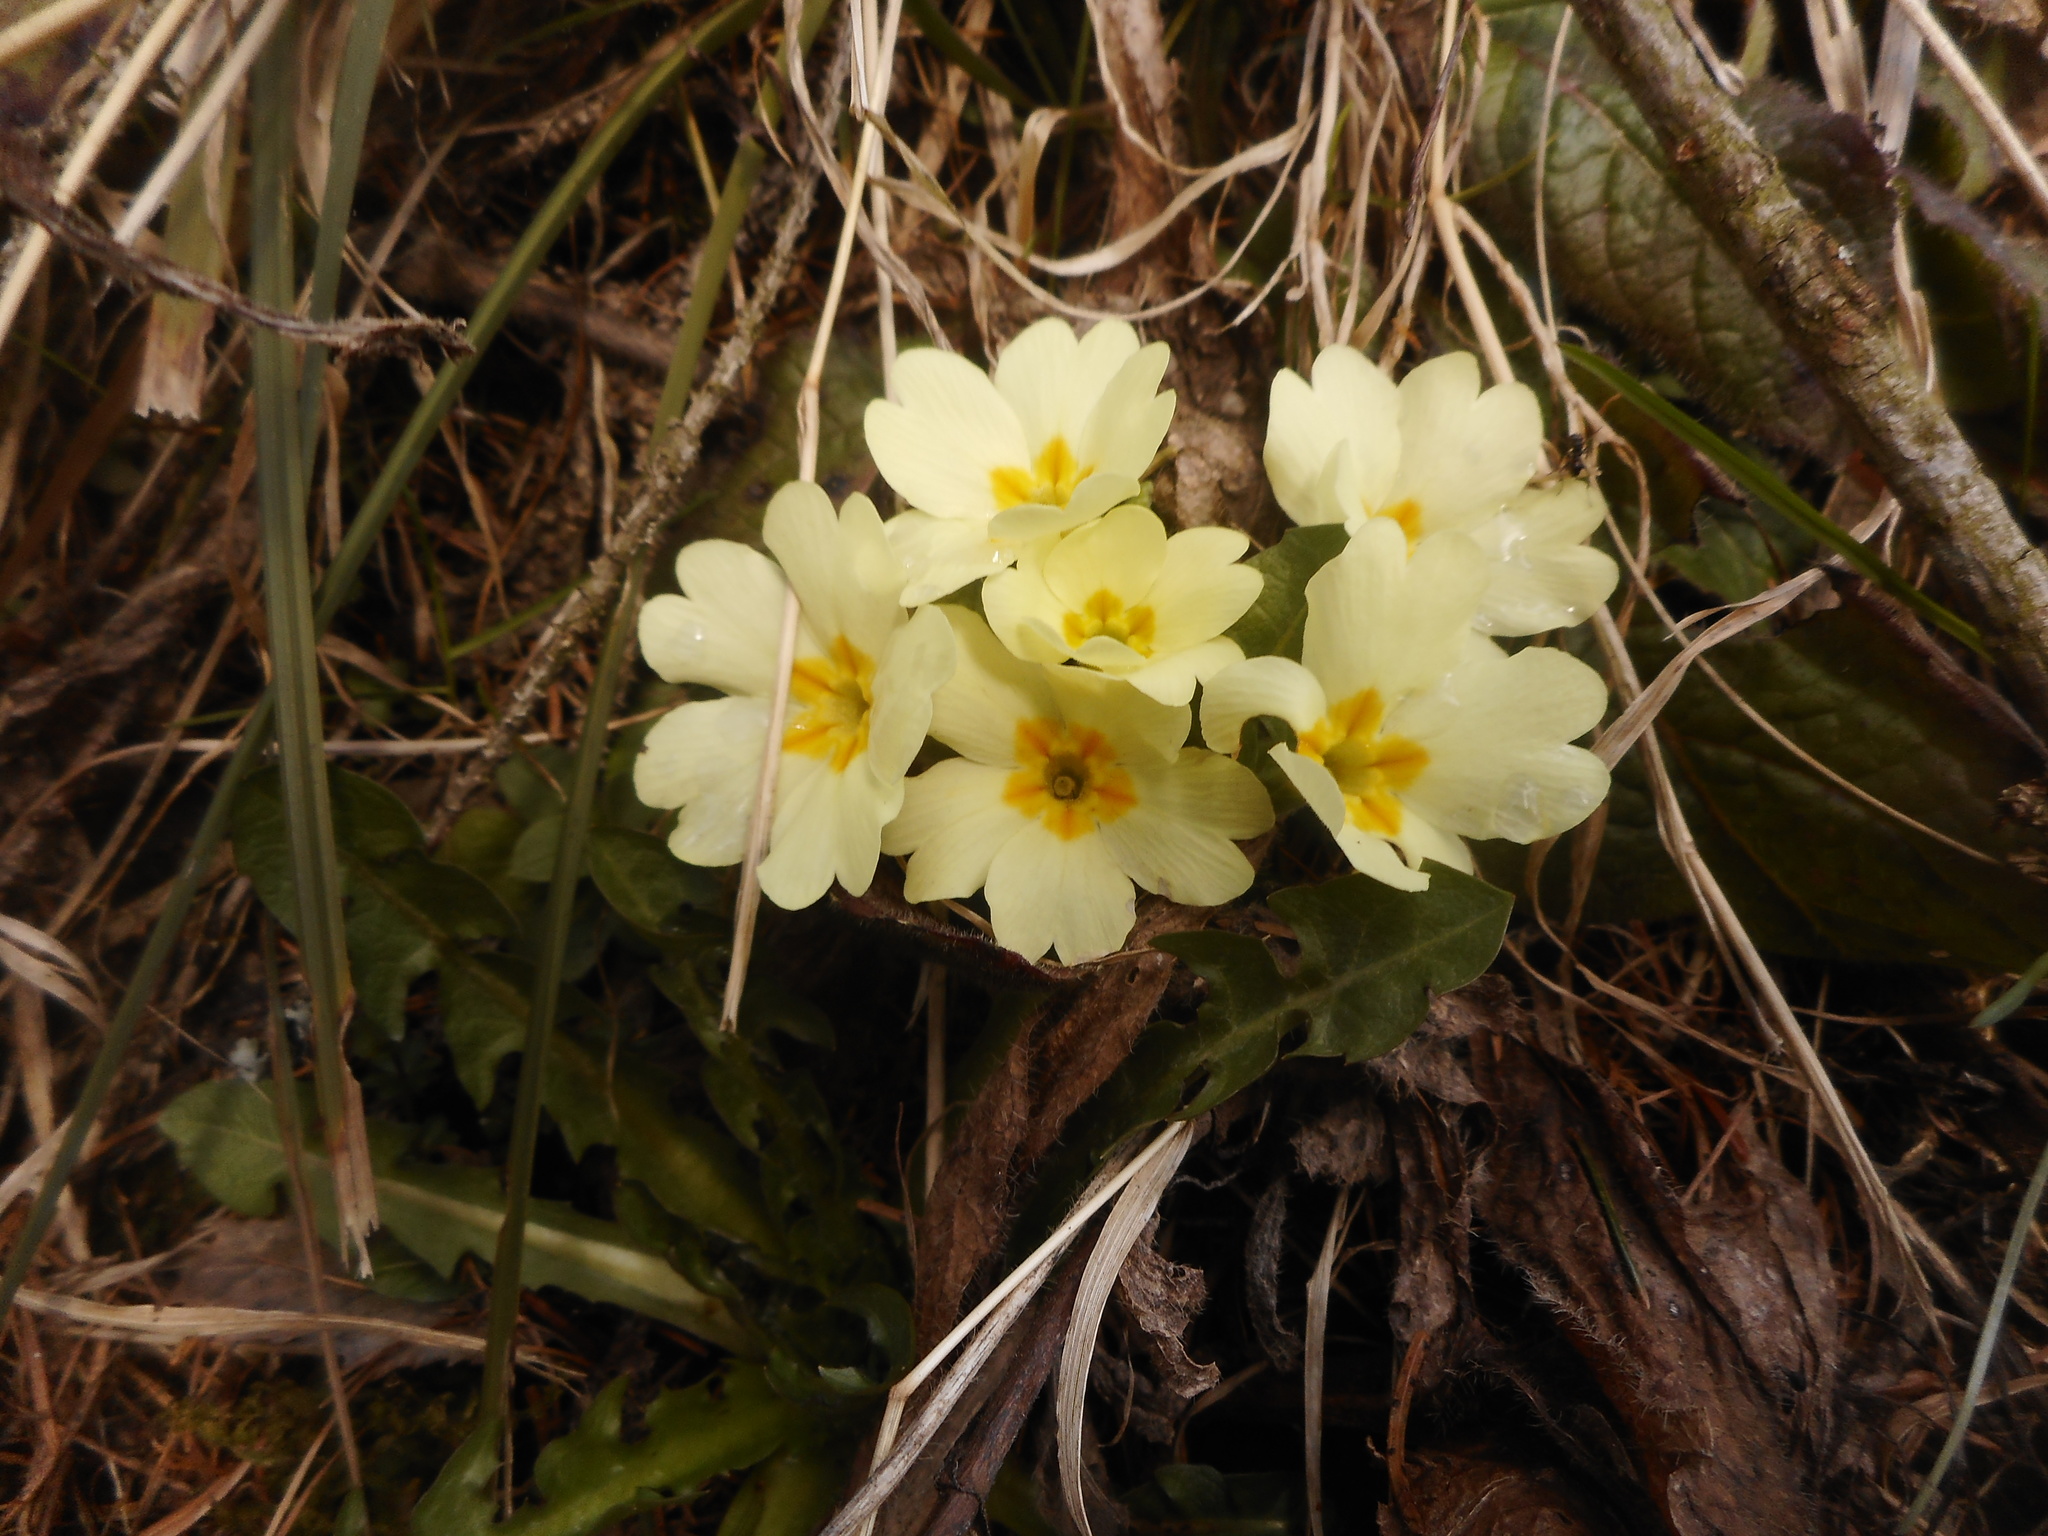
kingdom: Plantae
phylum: Tracheophyta
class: Magnoliopsida
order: Ericales
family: Primulaceae
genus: Primula
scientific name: Primula vulgaris
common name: Primrose
